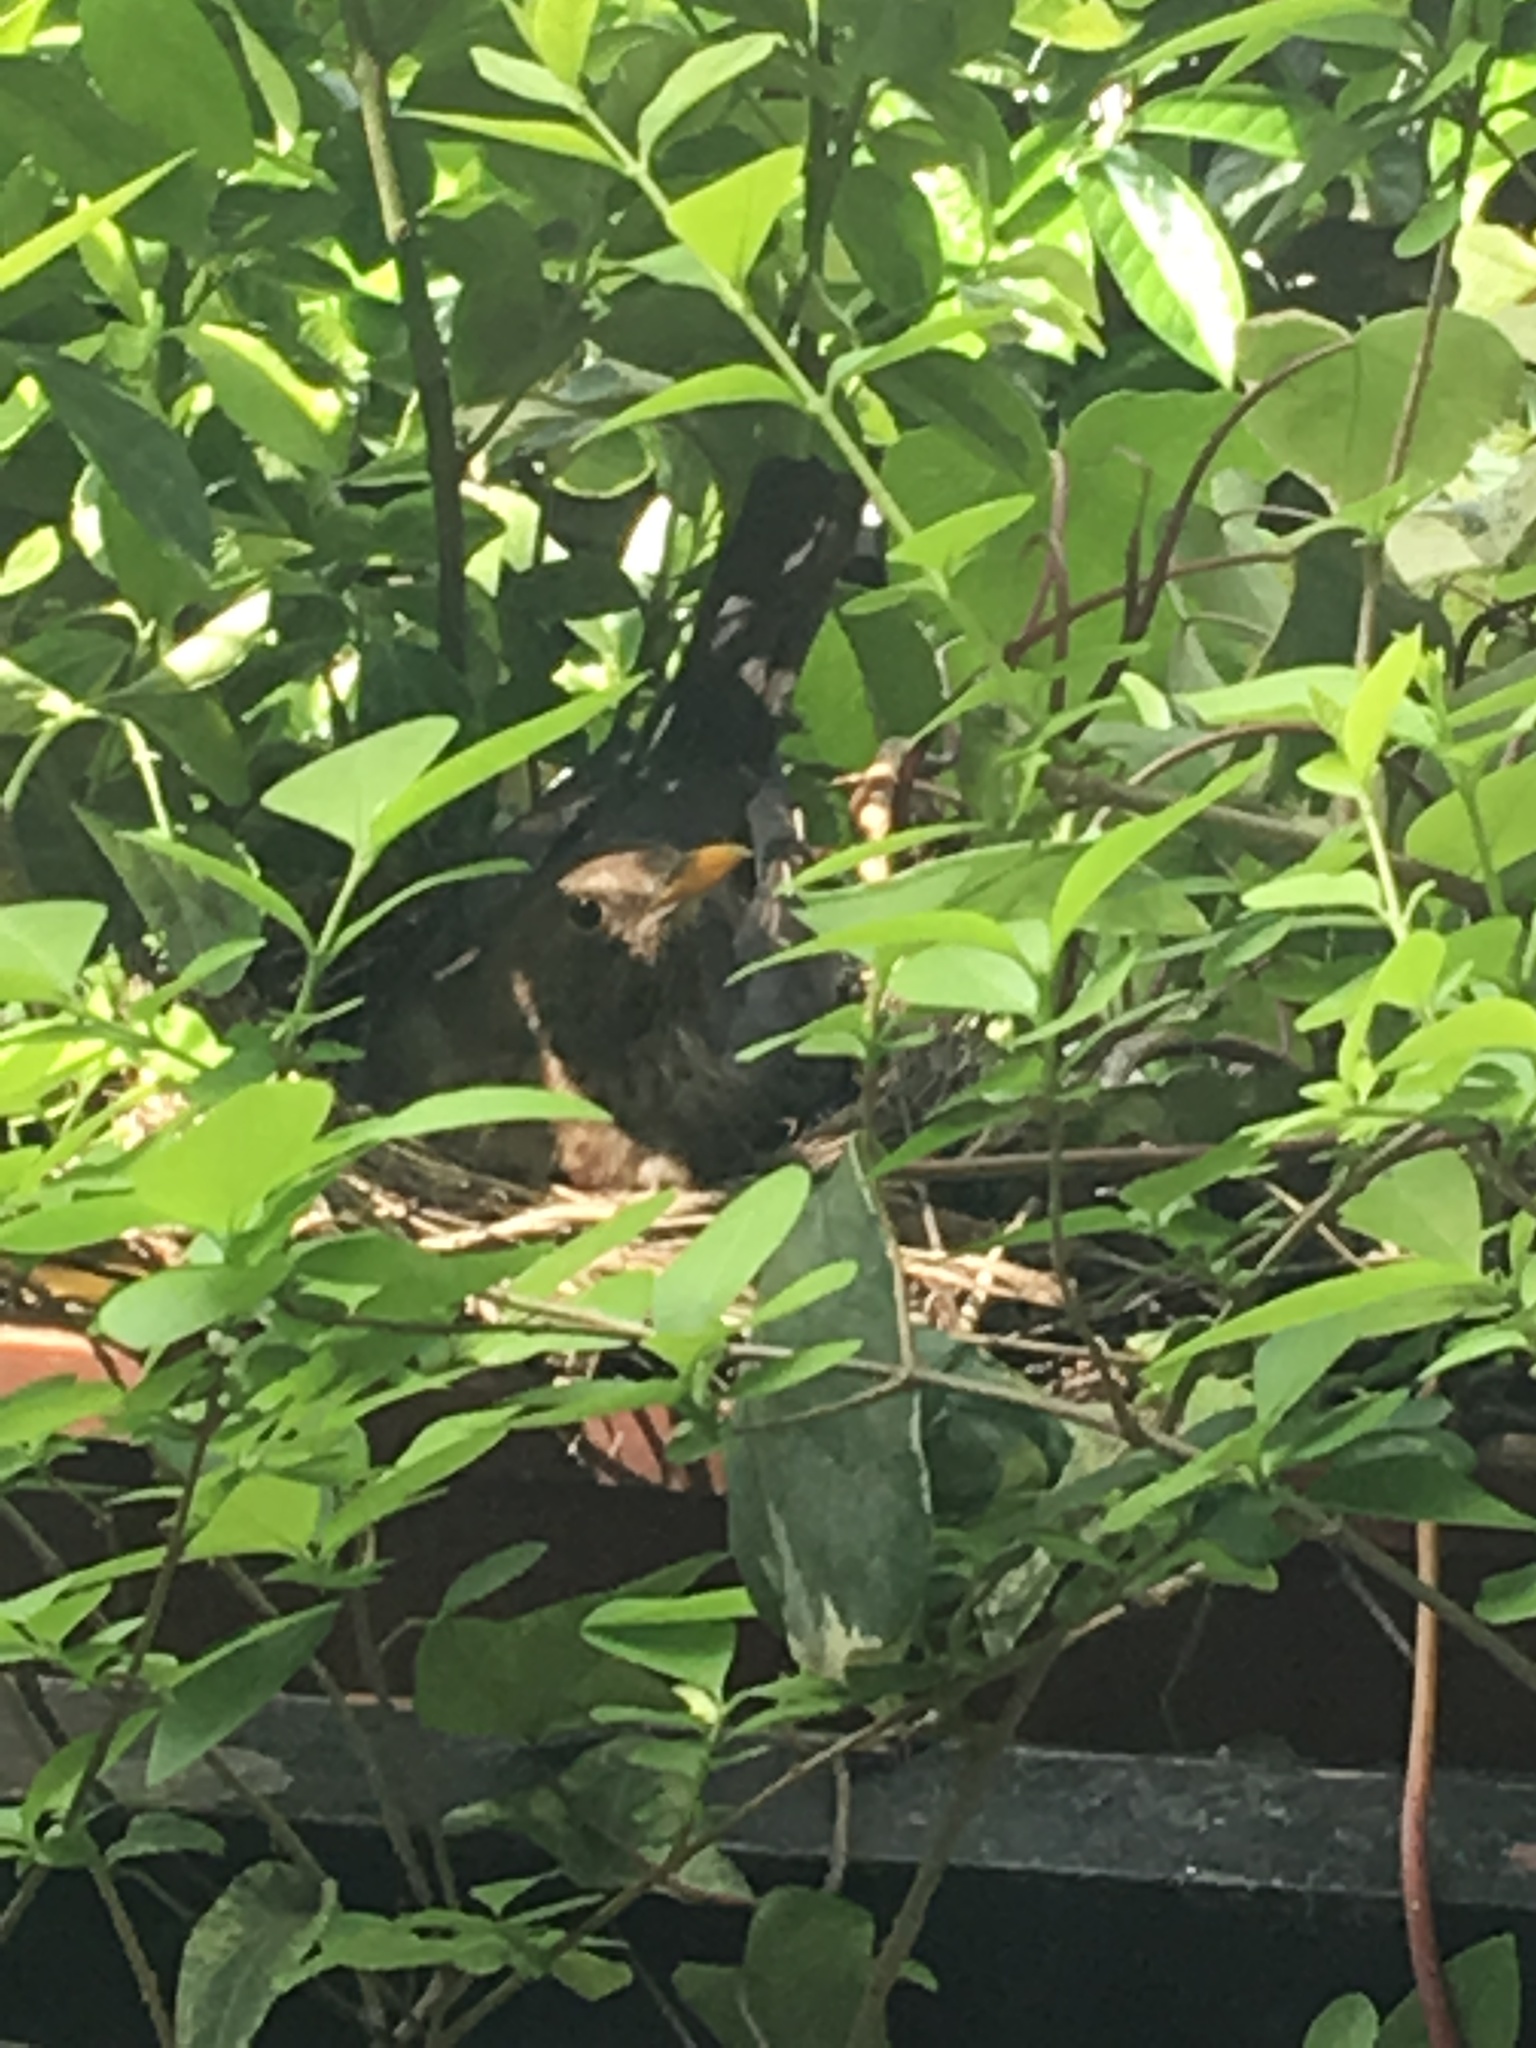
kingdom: Animalia
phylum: Chordata
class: Aves
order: Passeriformes
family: Turdidae
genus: Turdus
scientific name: Turdus merula
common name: Common blackbird
